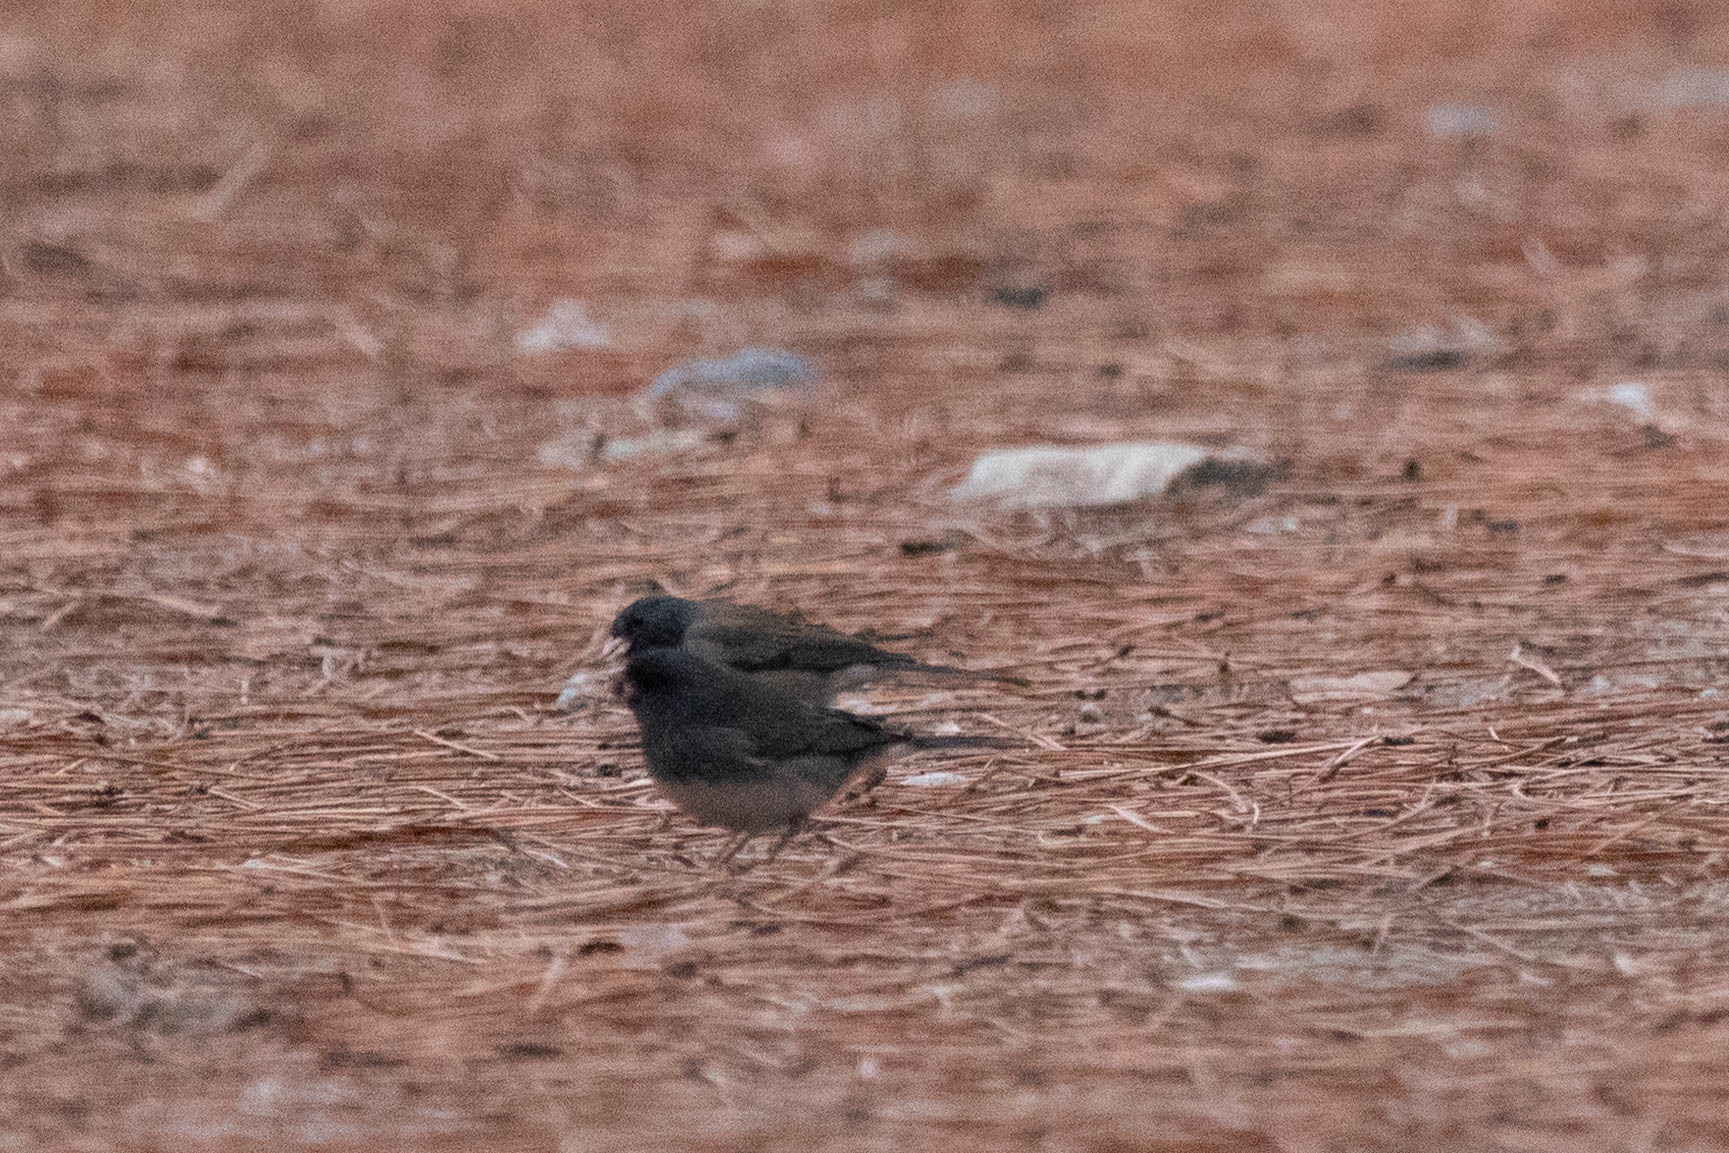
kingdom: Animalia
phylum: Chordata
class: Aves
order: Passeriformes
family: Passerellidae
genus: Junco
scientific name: Junco hyemalis
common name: Dark-eyed junco
